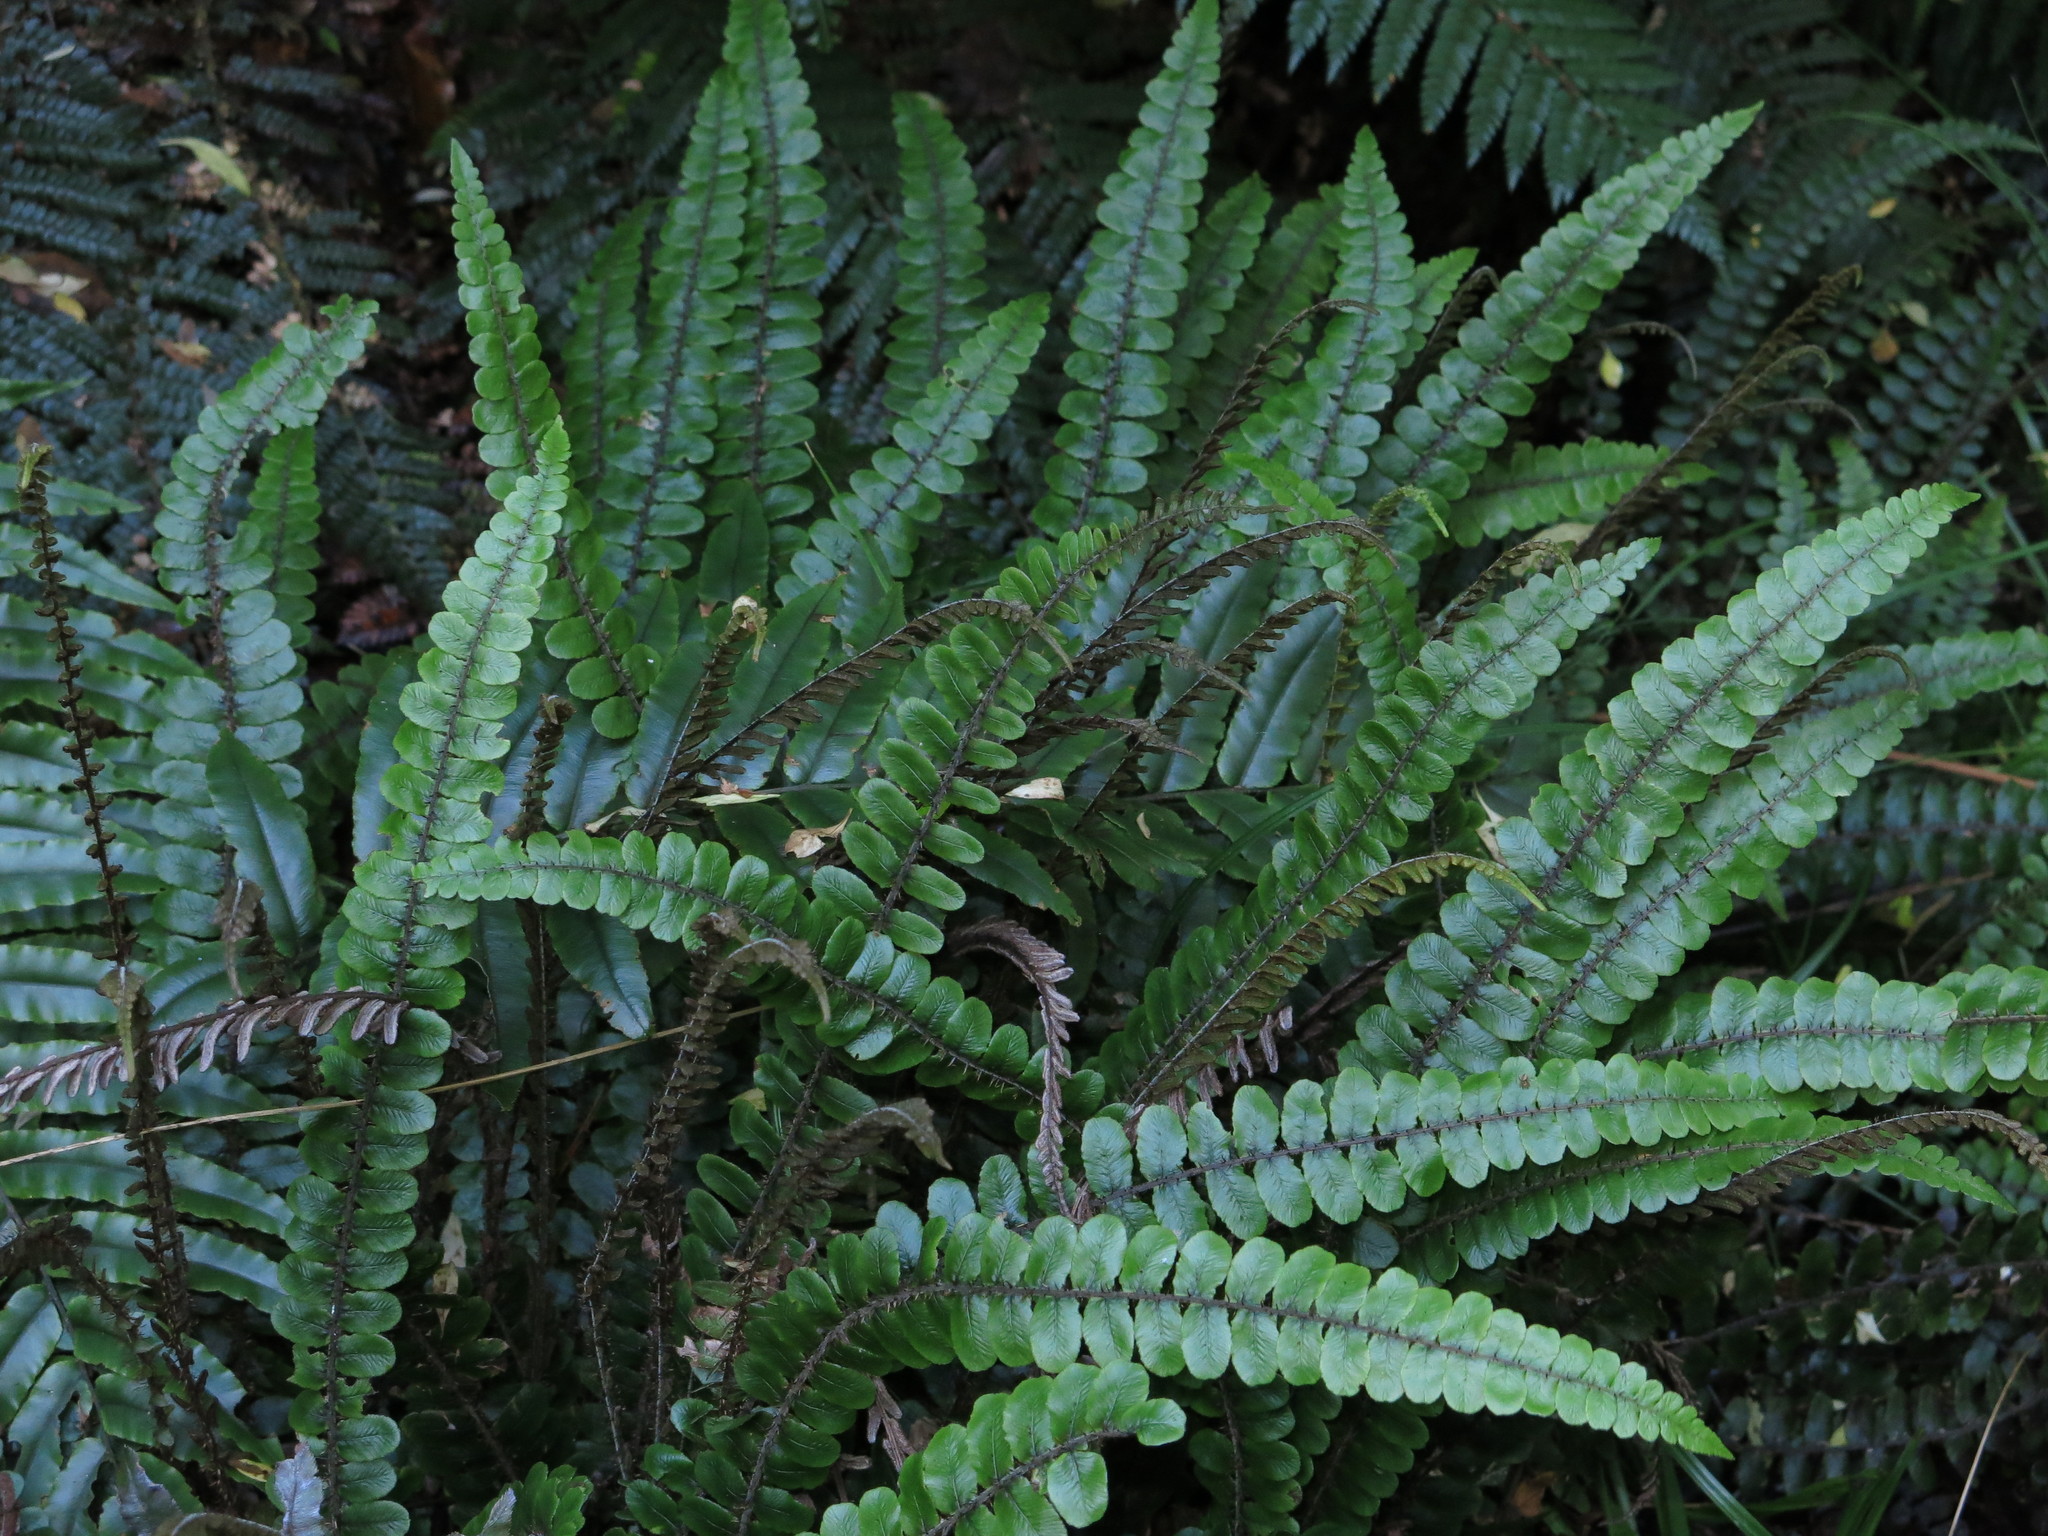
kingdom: Plantae
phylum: Tracheophyta
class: Polypodiopsida
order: Polypodiales
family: Blechnaceae
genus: Cranfillia
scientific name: Cranfillia fluviatilis
